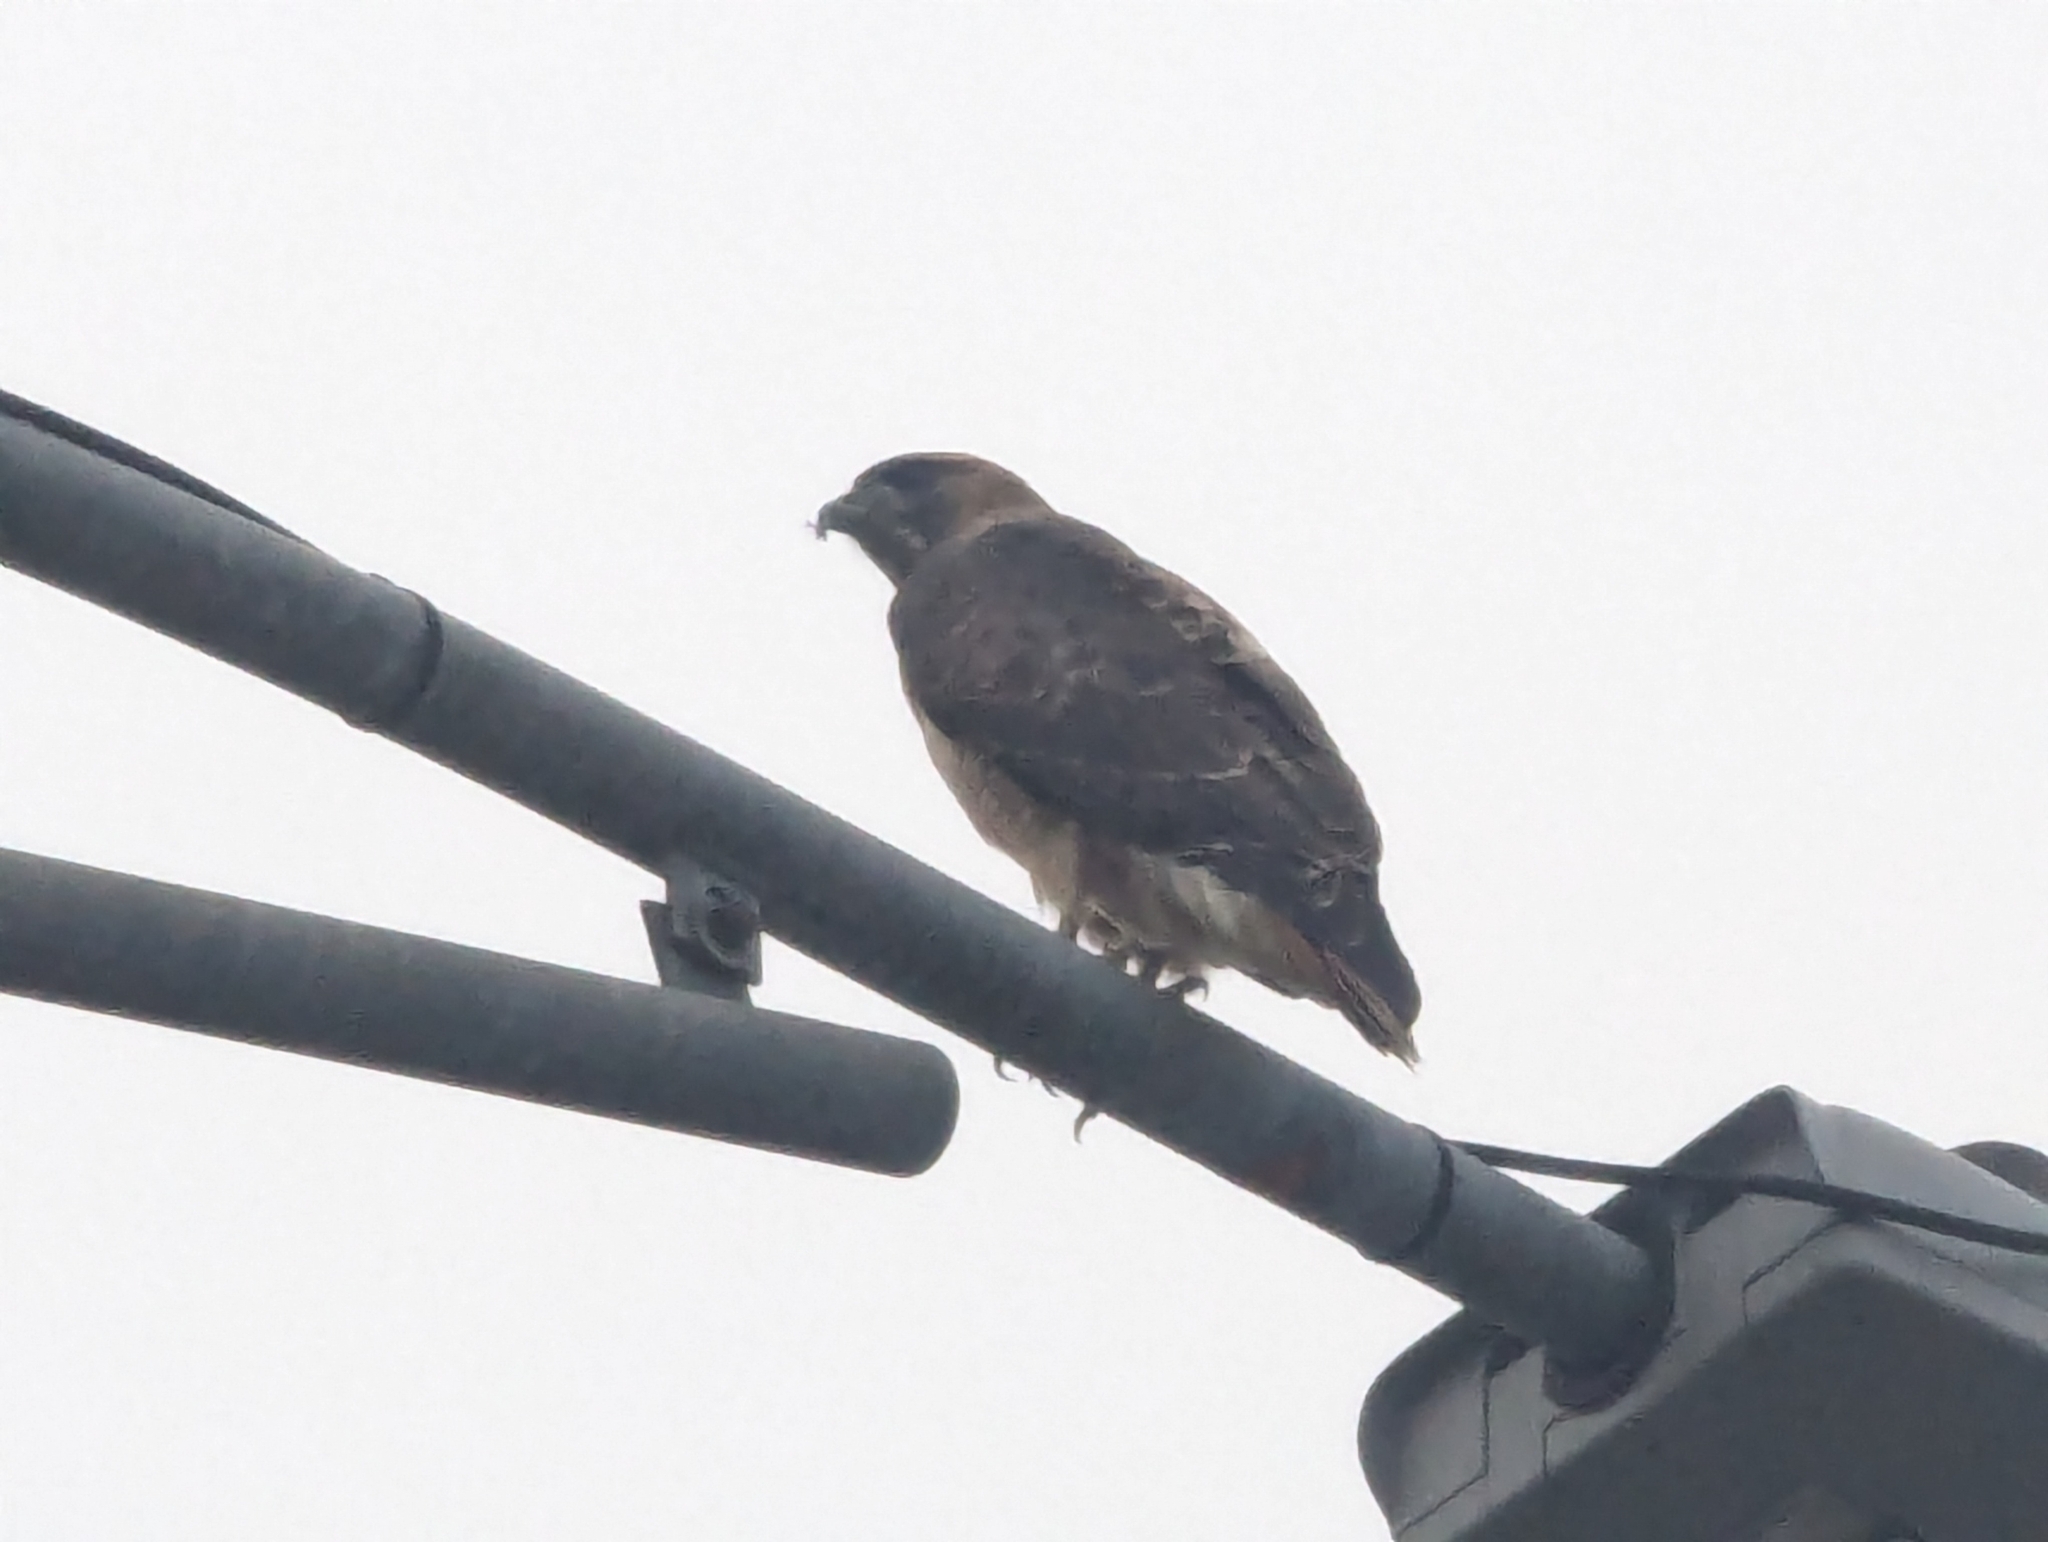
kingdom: Animalia
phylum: Chordata
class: Aves
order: Accipitriformes
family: Accipitridae
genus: Buteo
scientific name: Buteo jamaicensis
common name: Red-tailed hawk
